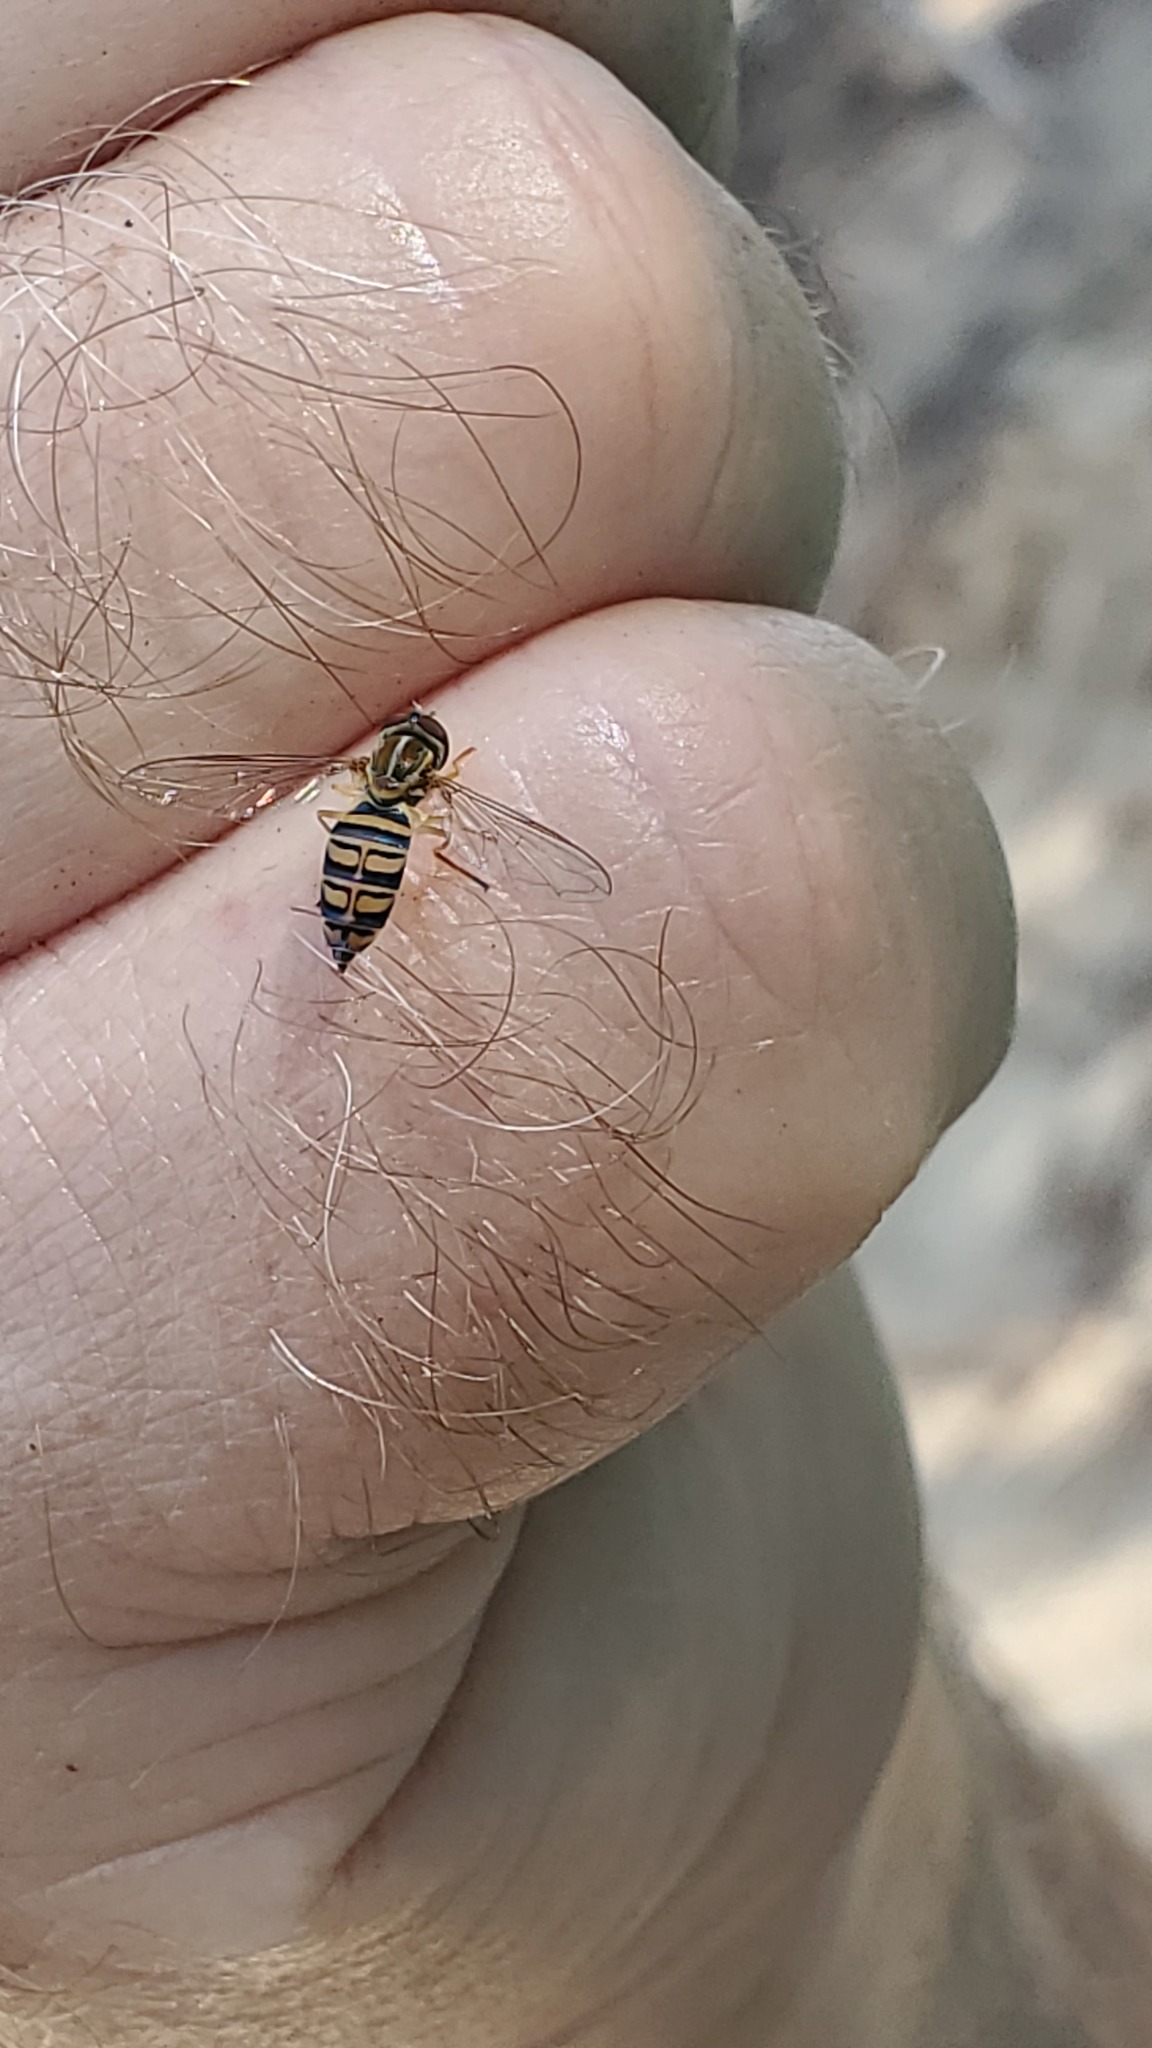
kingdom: Animalia
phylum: Arthropoda
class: Insecta
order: Diptera
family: Syrphidae
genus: Toxomerus
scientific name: Toxomerus politus
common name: Maize calligrapher
